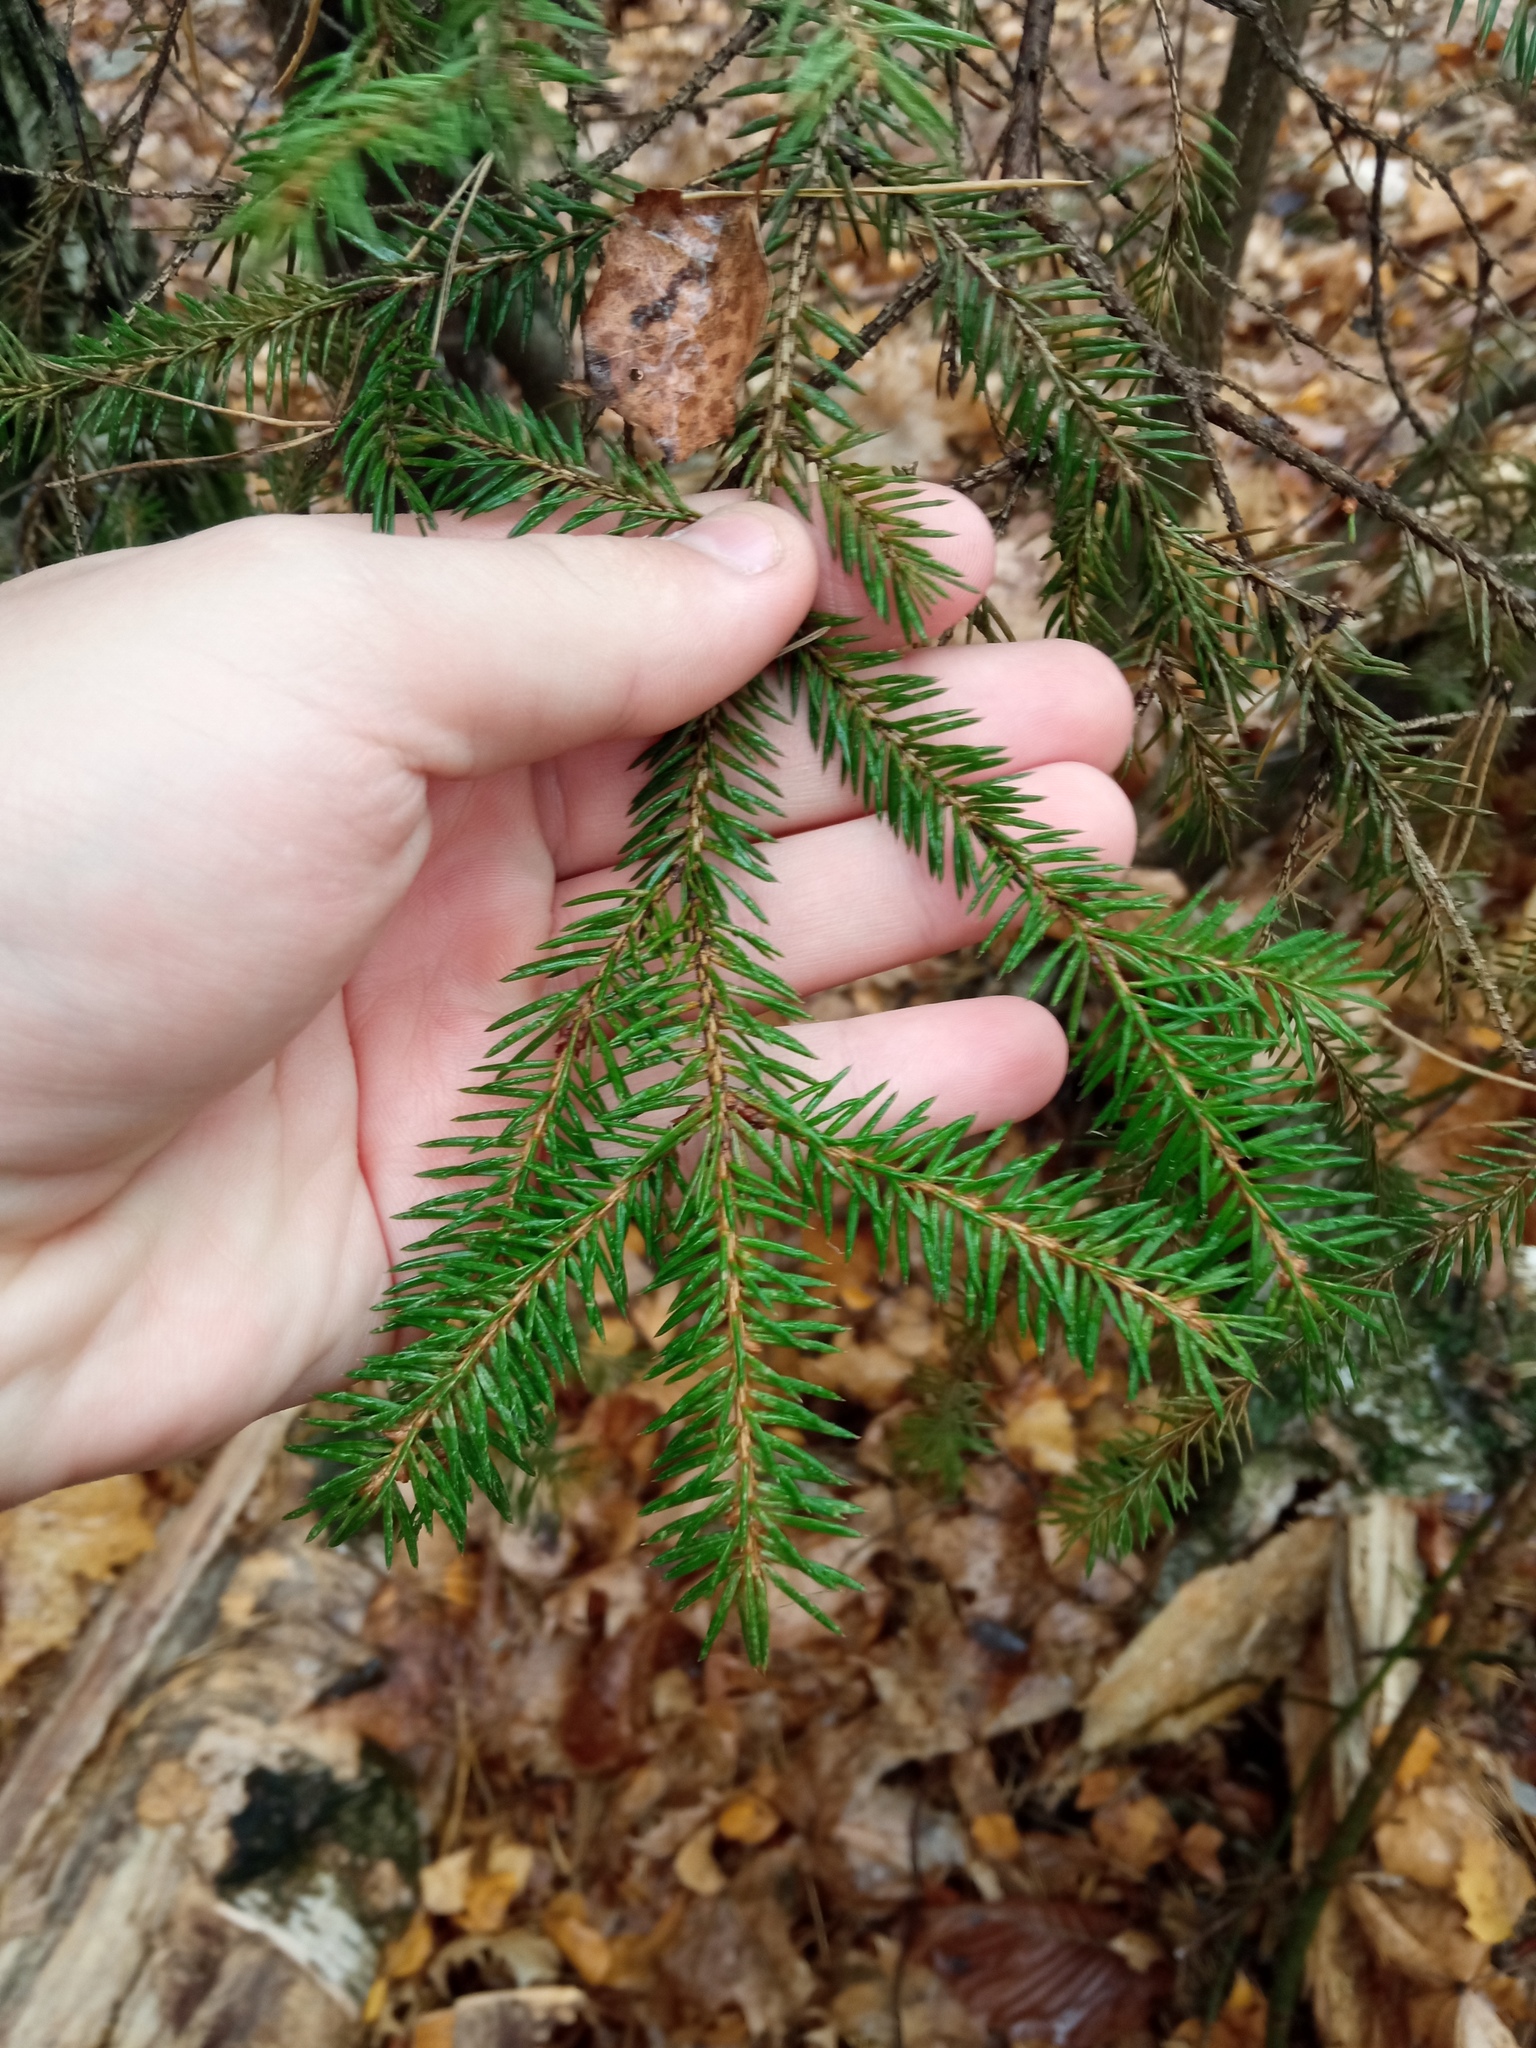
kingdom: Plantae
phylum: Tracheophyta
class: Pinopsida
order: Pinales
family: Pinaceae
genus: Picea
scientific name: Picea abies
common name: Norway spruce
